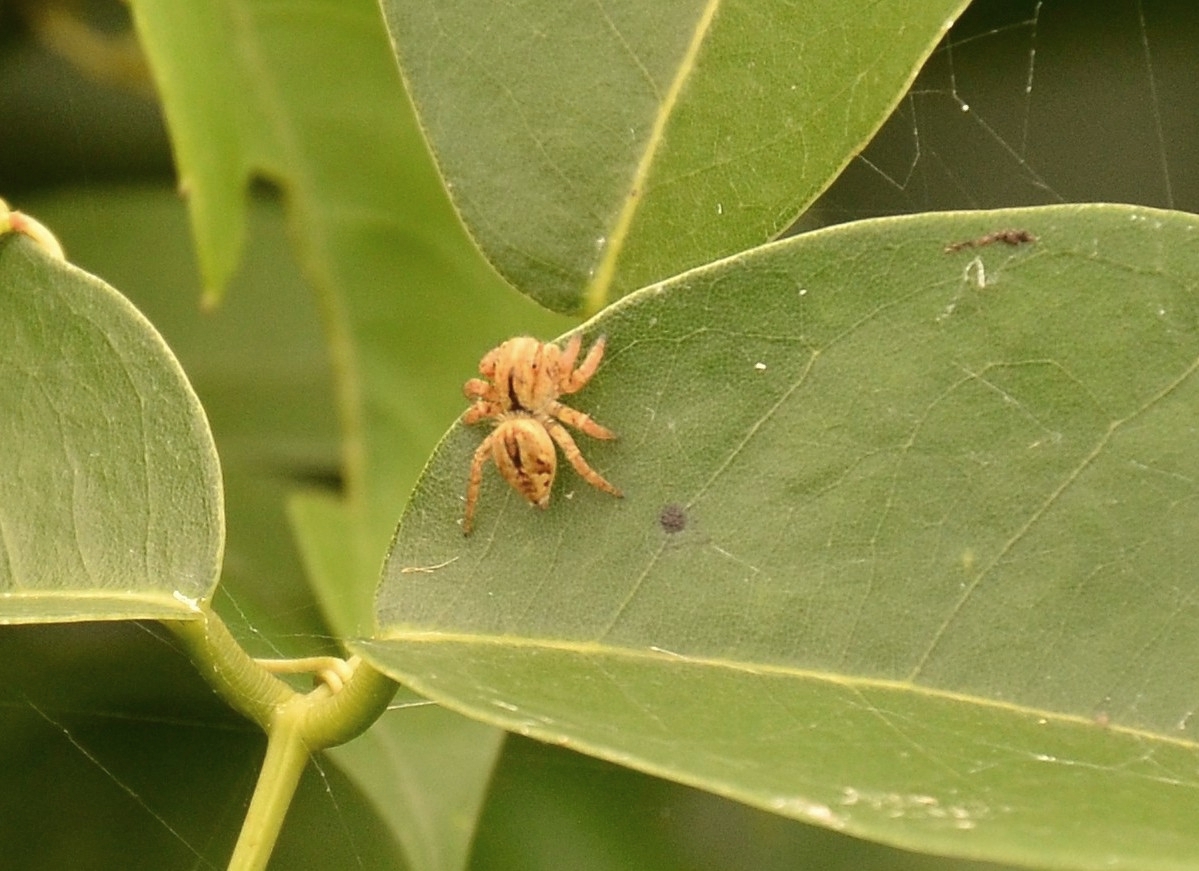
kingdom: Animalia
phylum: Arthropoda
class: Arachnida
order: Araneae
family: Salticidae
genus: Carrhotus
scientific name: Carrhotus viduus
